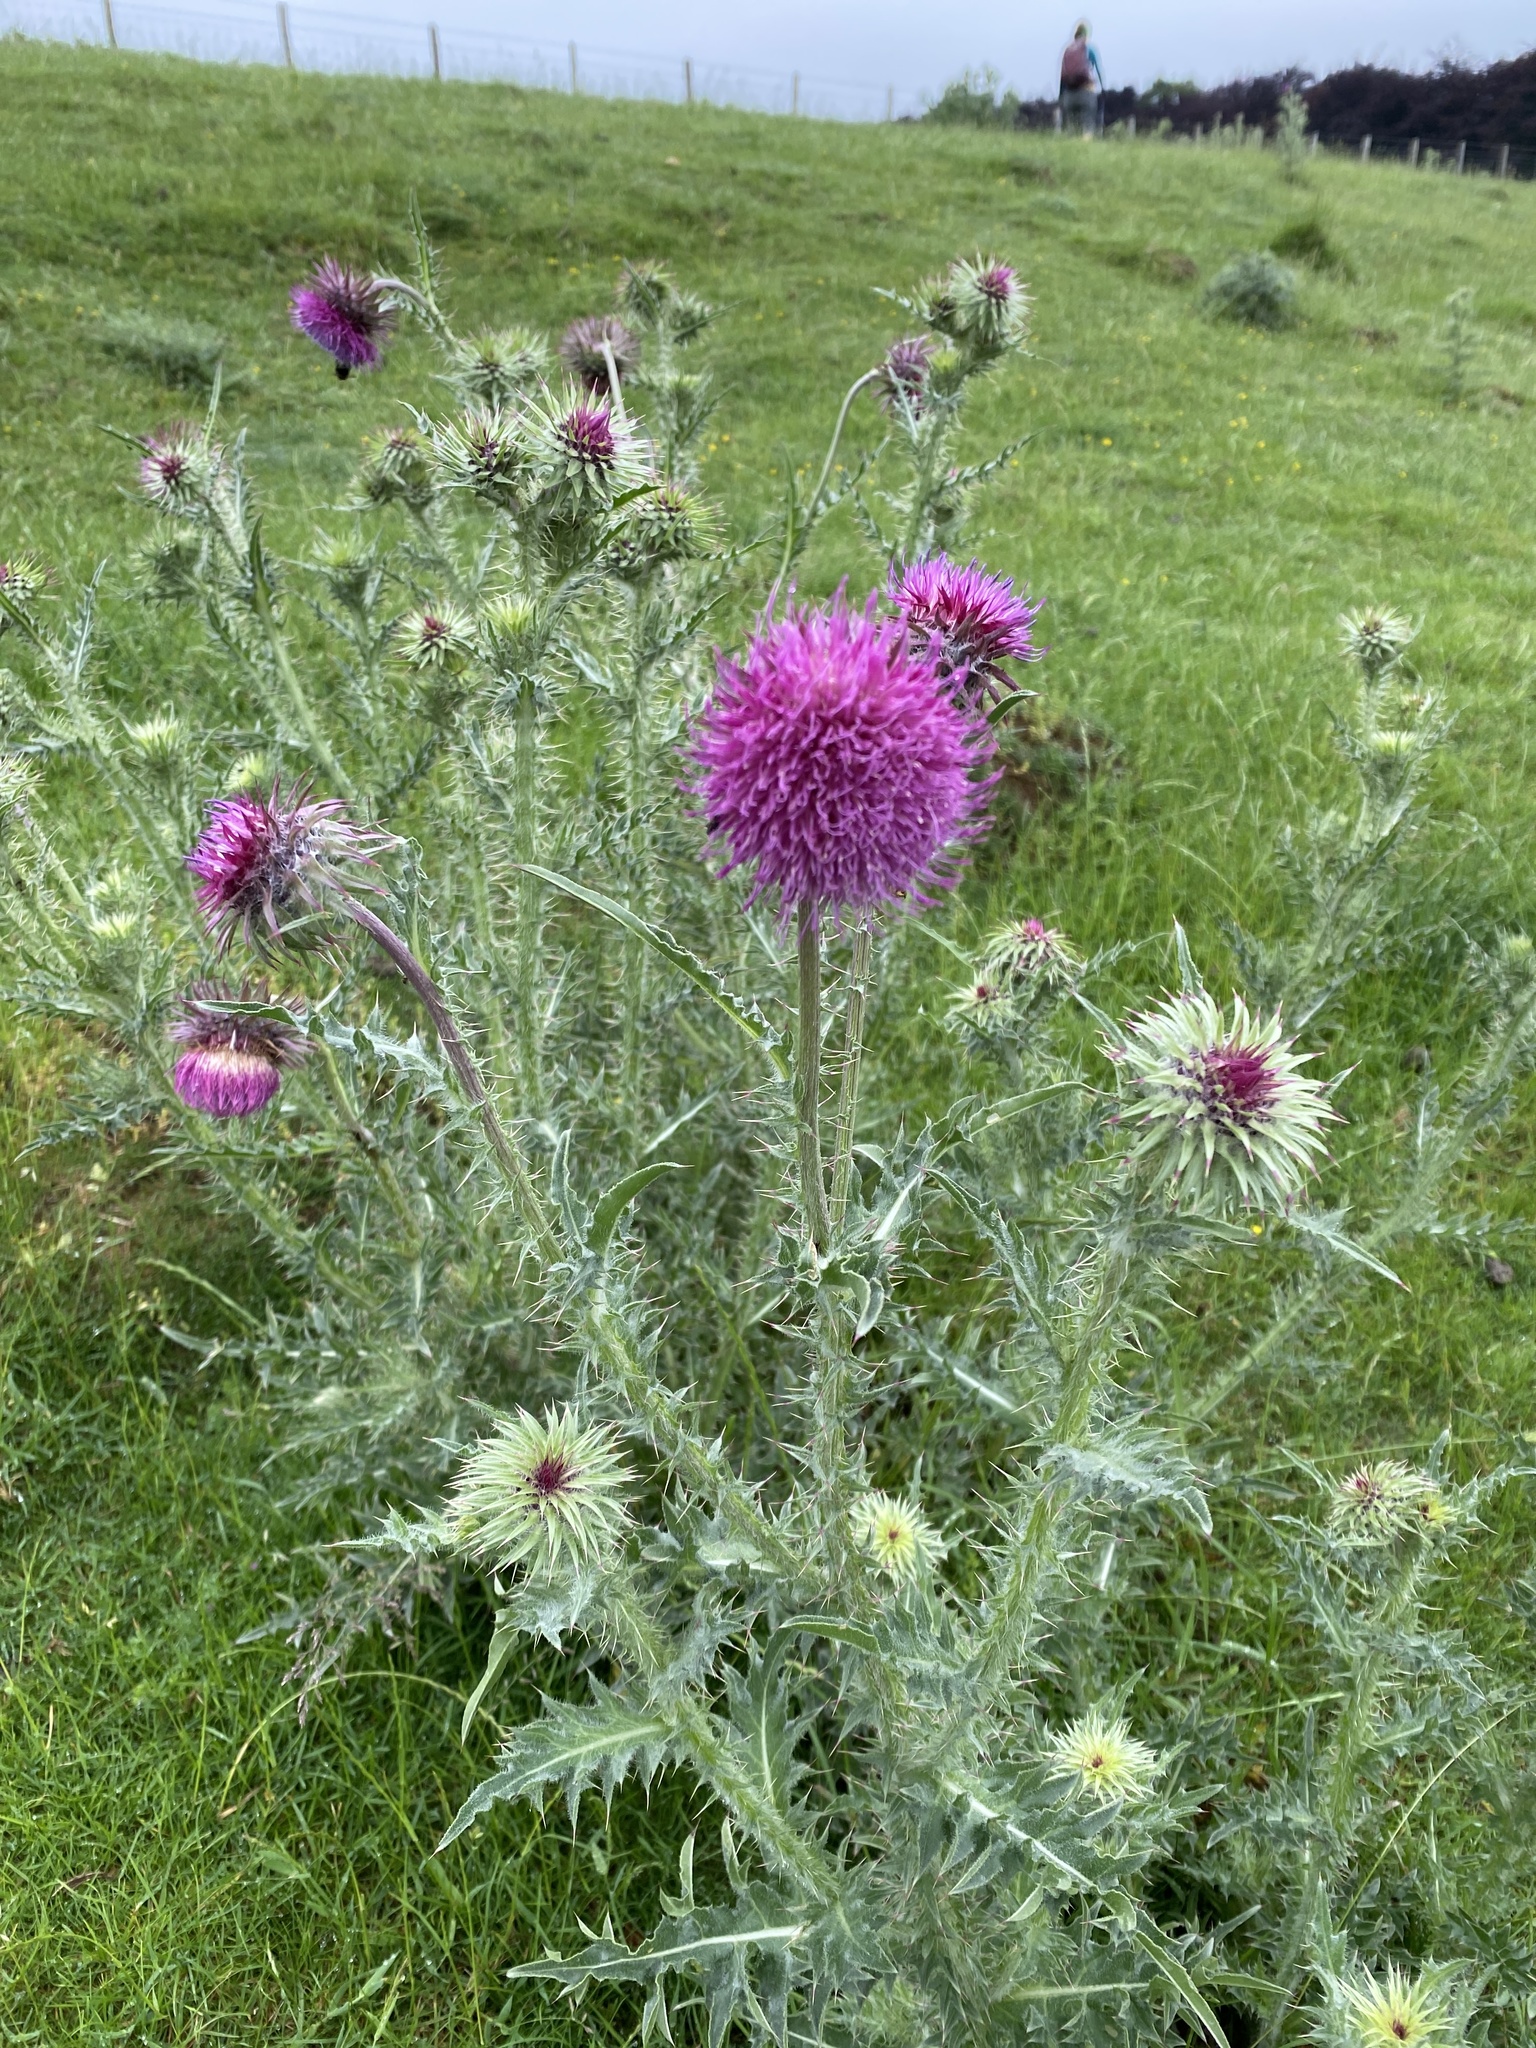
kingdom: Plantae
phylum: Tracheophyta
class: Magnoliopsida
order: Asterales
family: Asteraceae
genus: Carduus
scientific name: Carduus nutans
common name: Musk thistle
